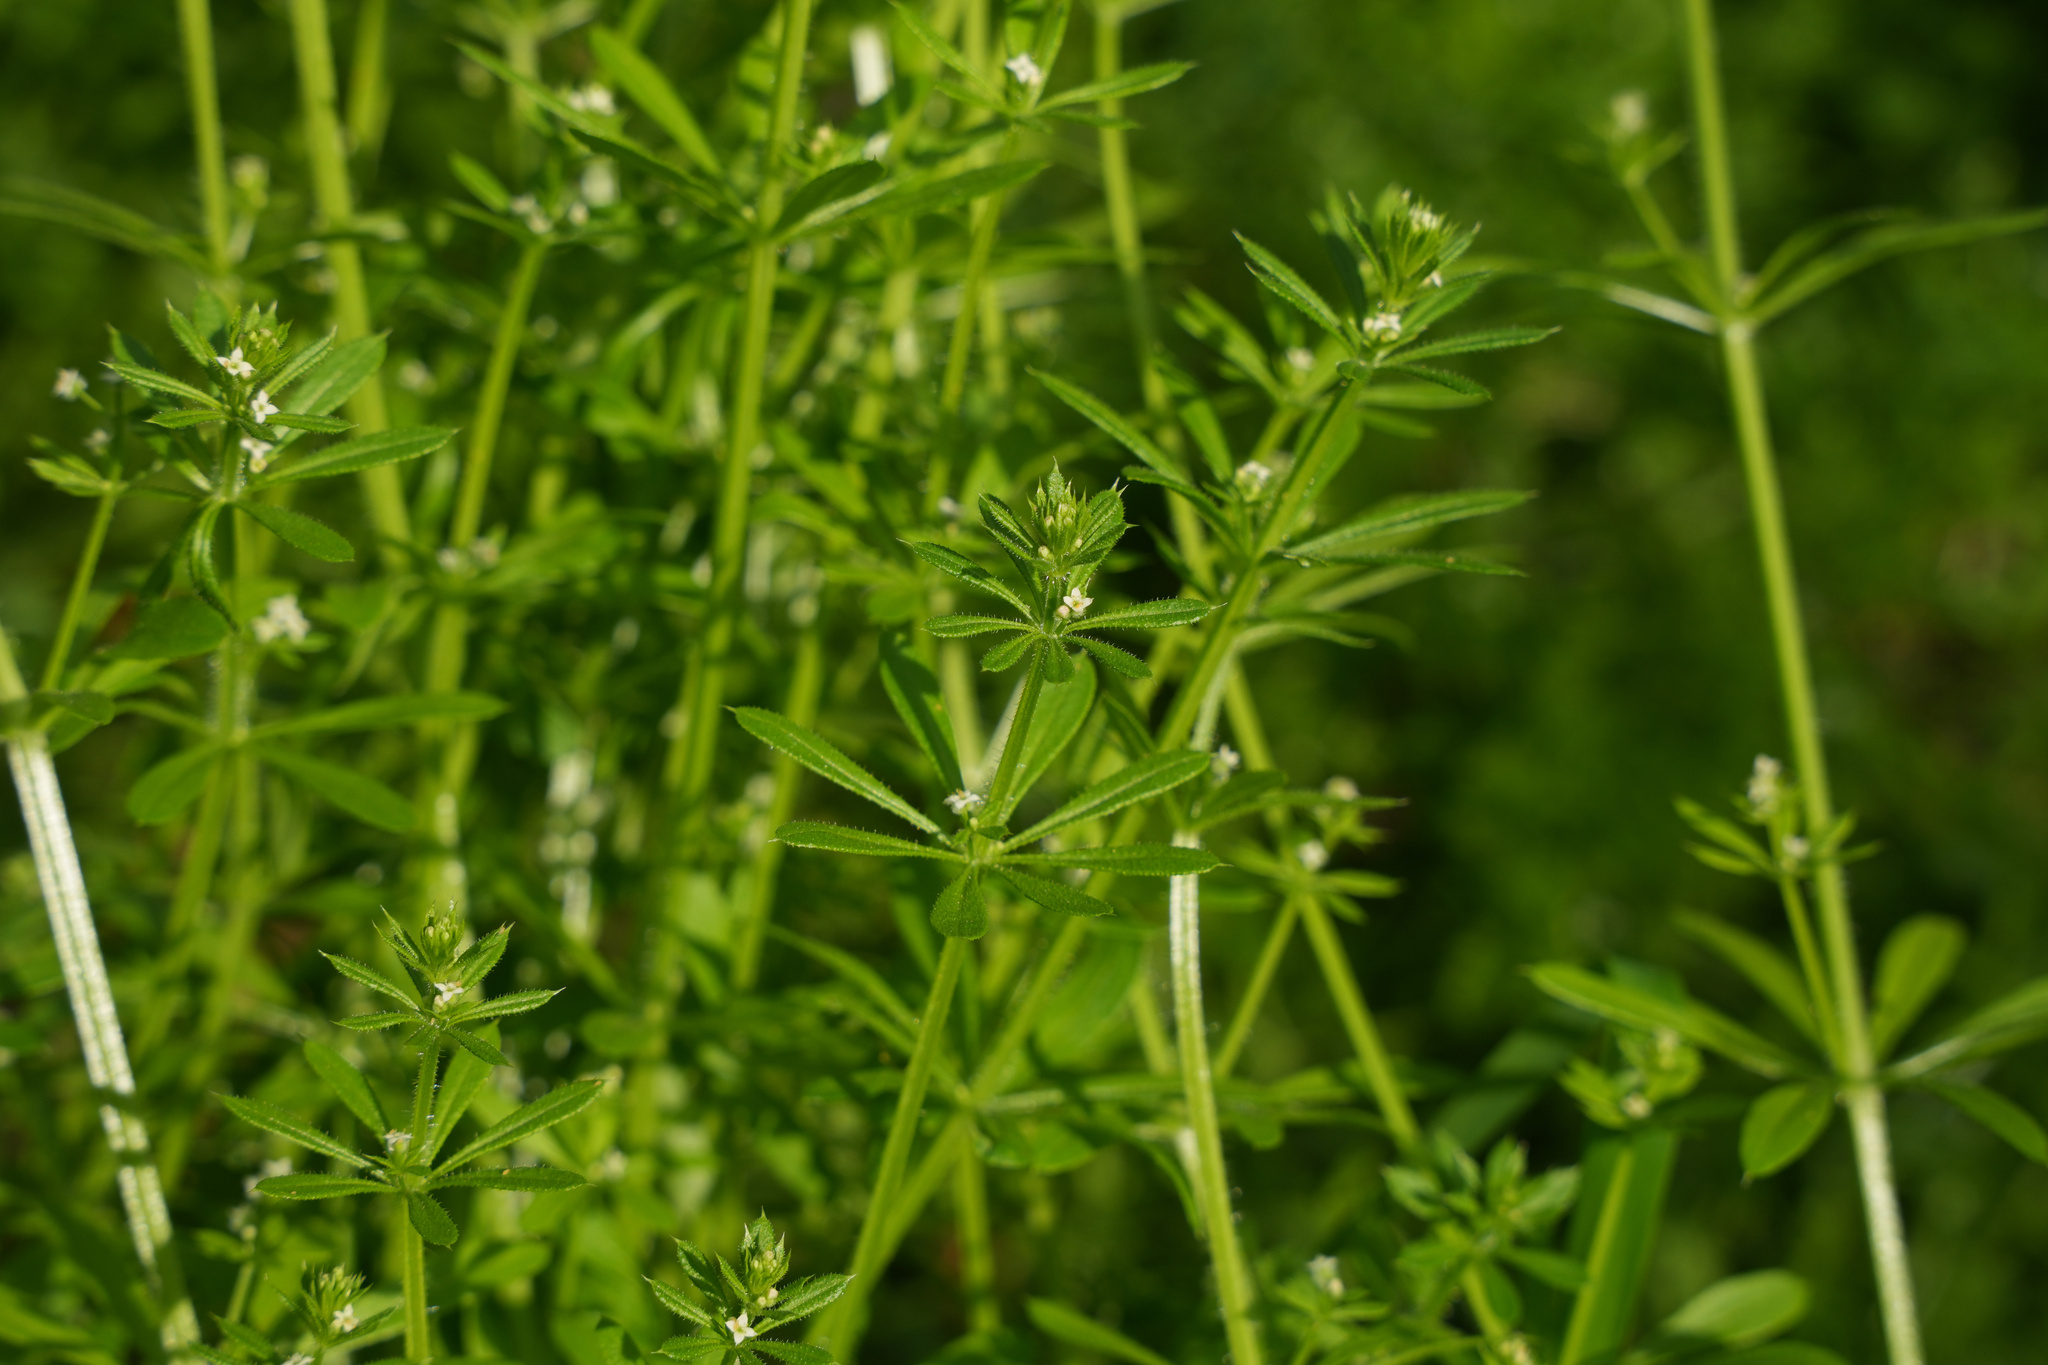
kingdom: Plantae
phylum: Tracheophyta
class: Magnoliopsida
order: Gentianales
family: Rubiaceae
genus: Galium
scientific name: Galium aparine
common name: Cleavers
